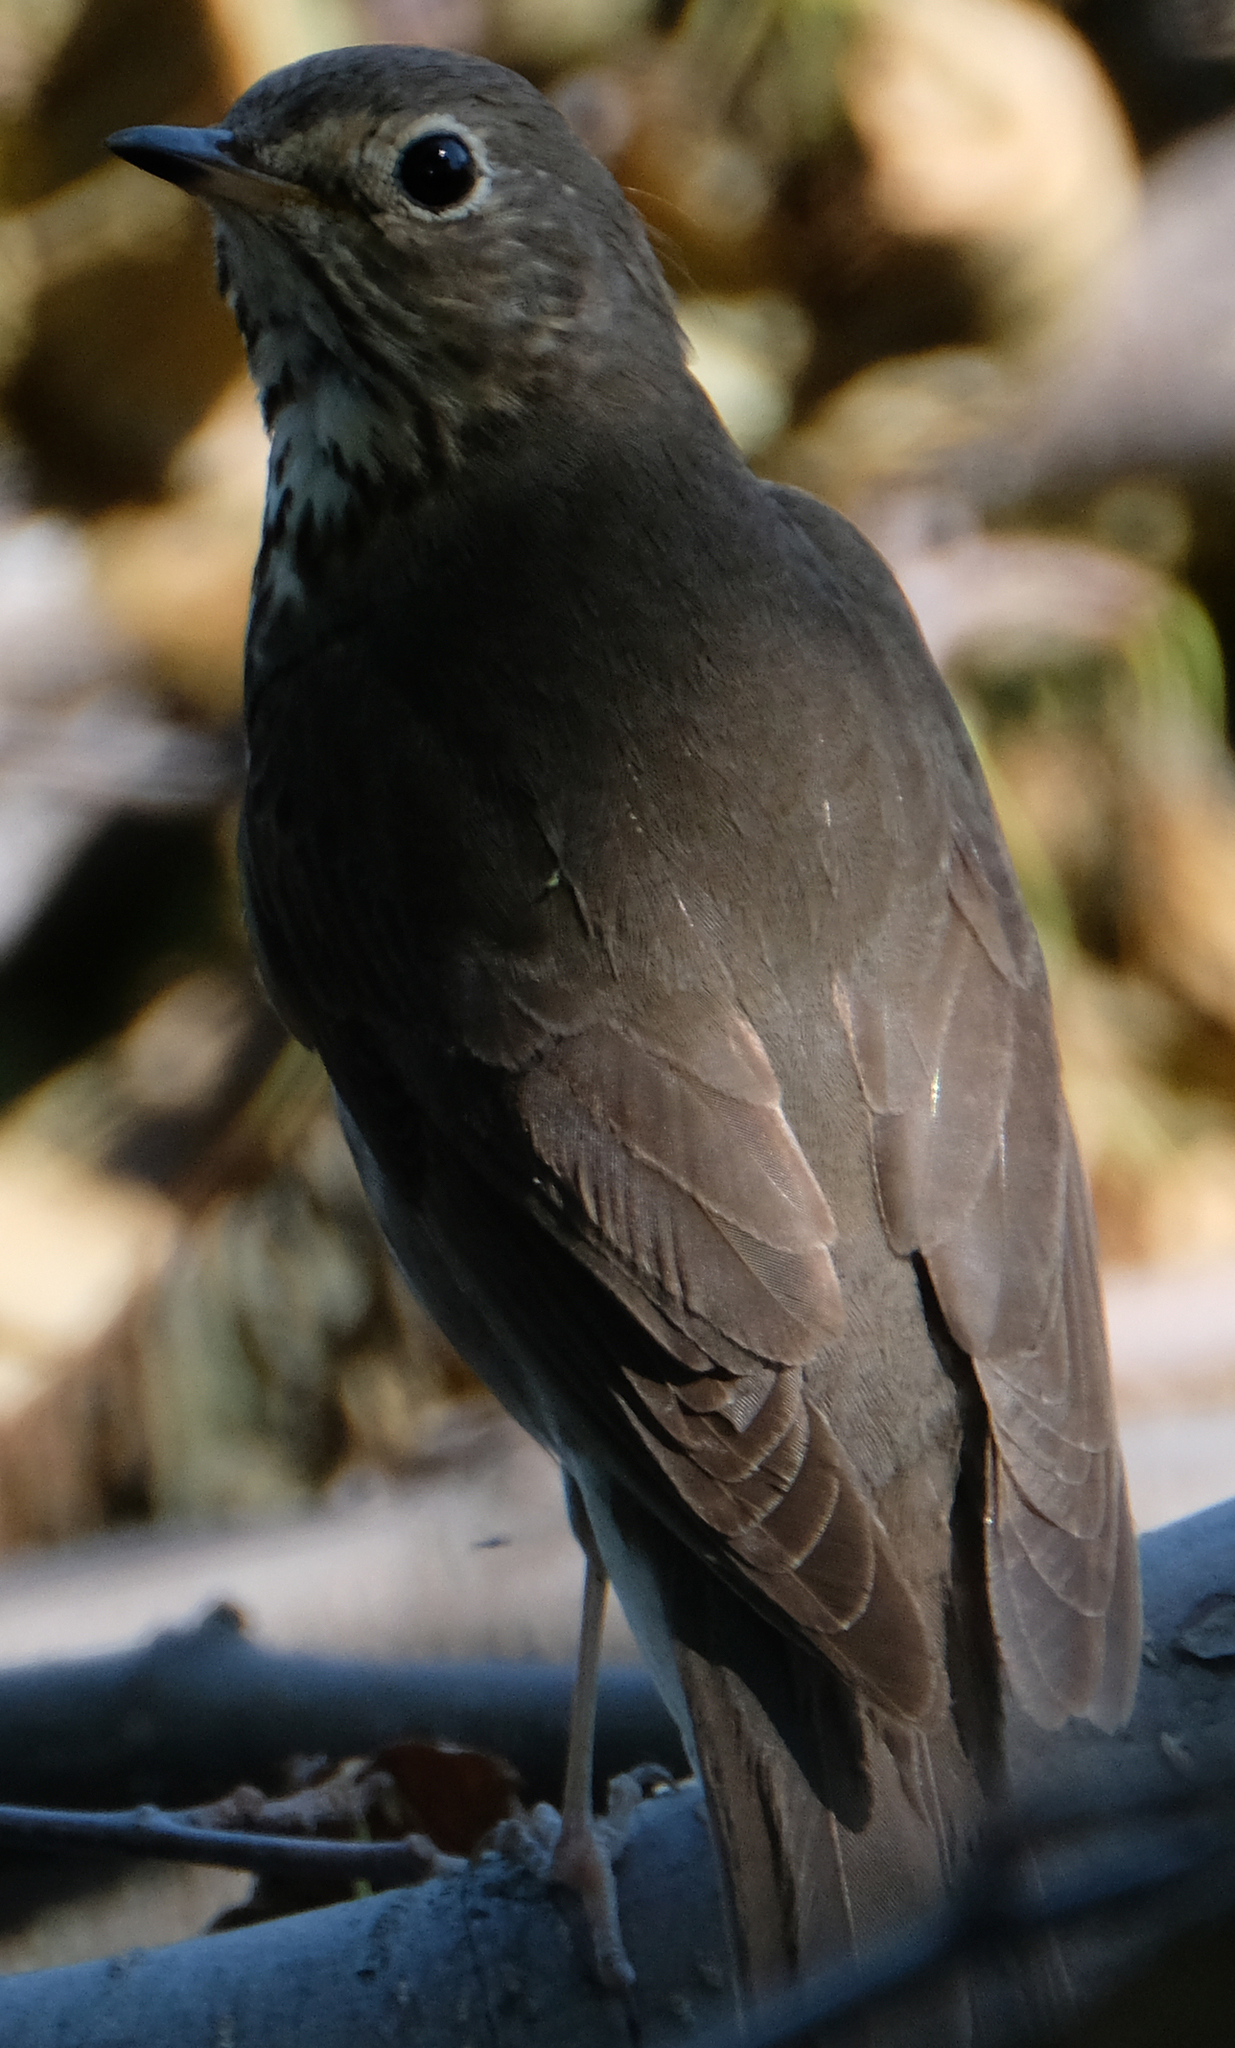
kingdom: Animalia
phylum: Chordata
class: Aves
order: Passeriformes
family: Turdidae
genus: Catharus
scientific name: Catharus ustulatus
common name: Swainson's thrush
